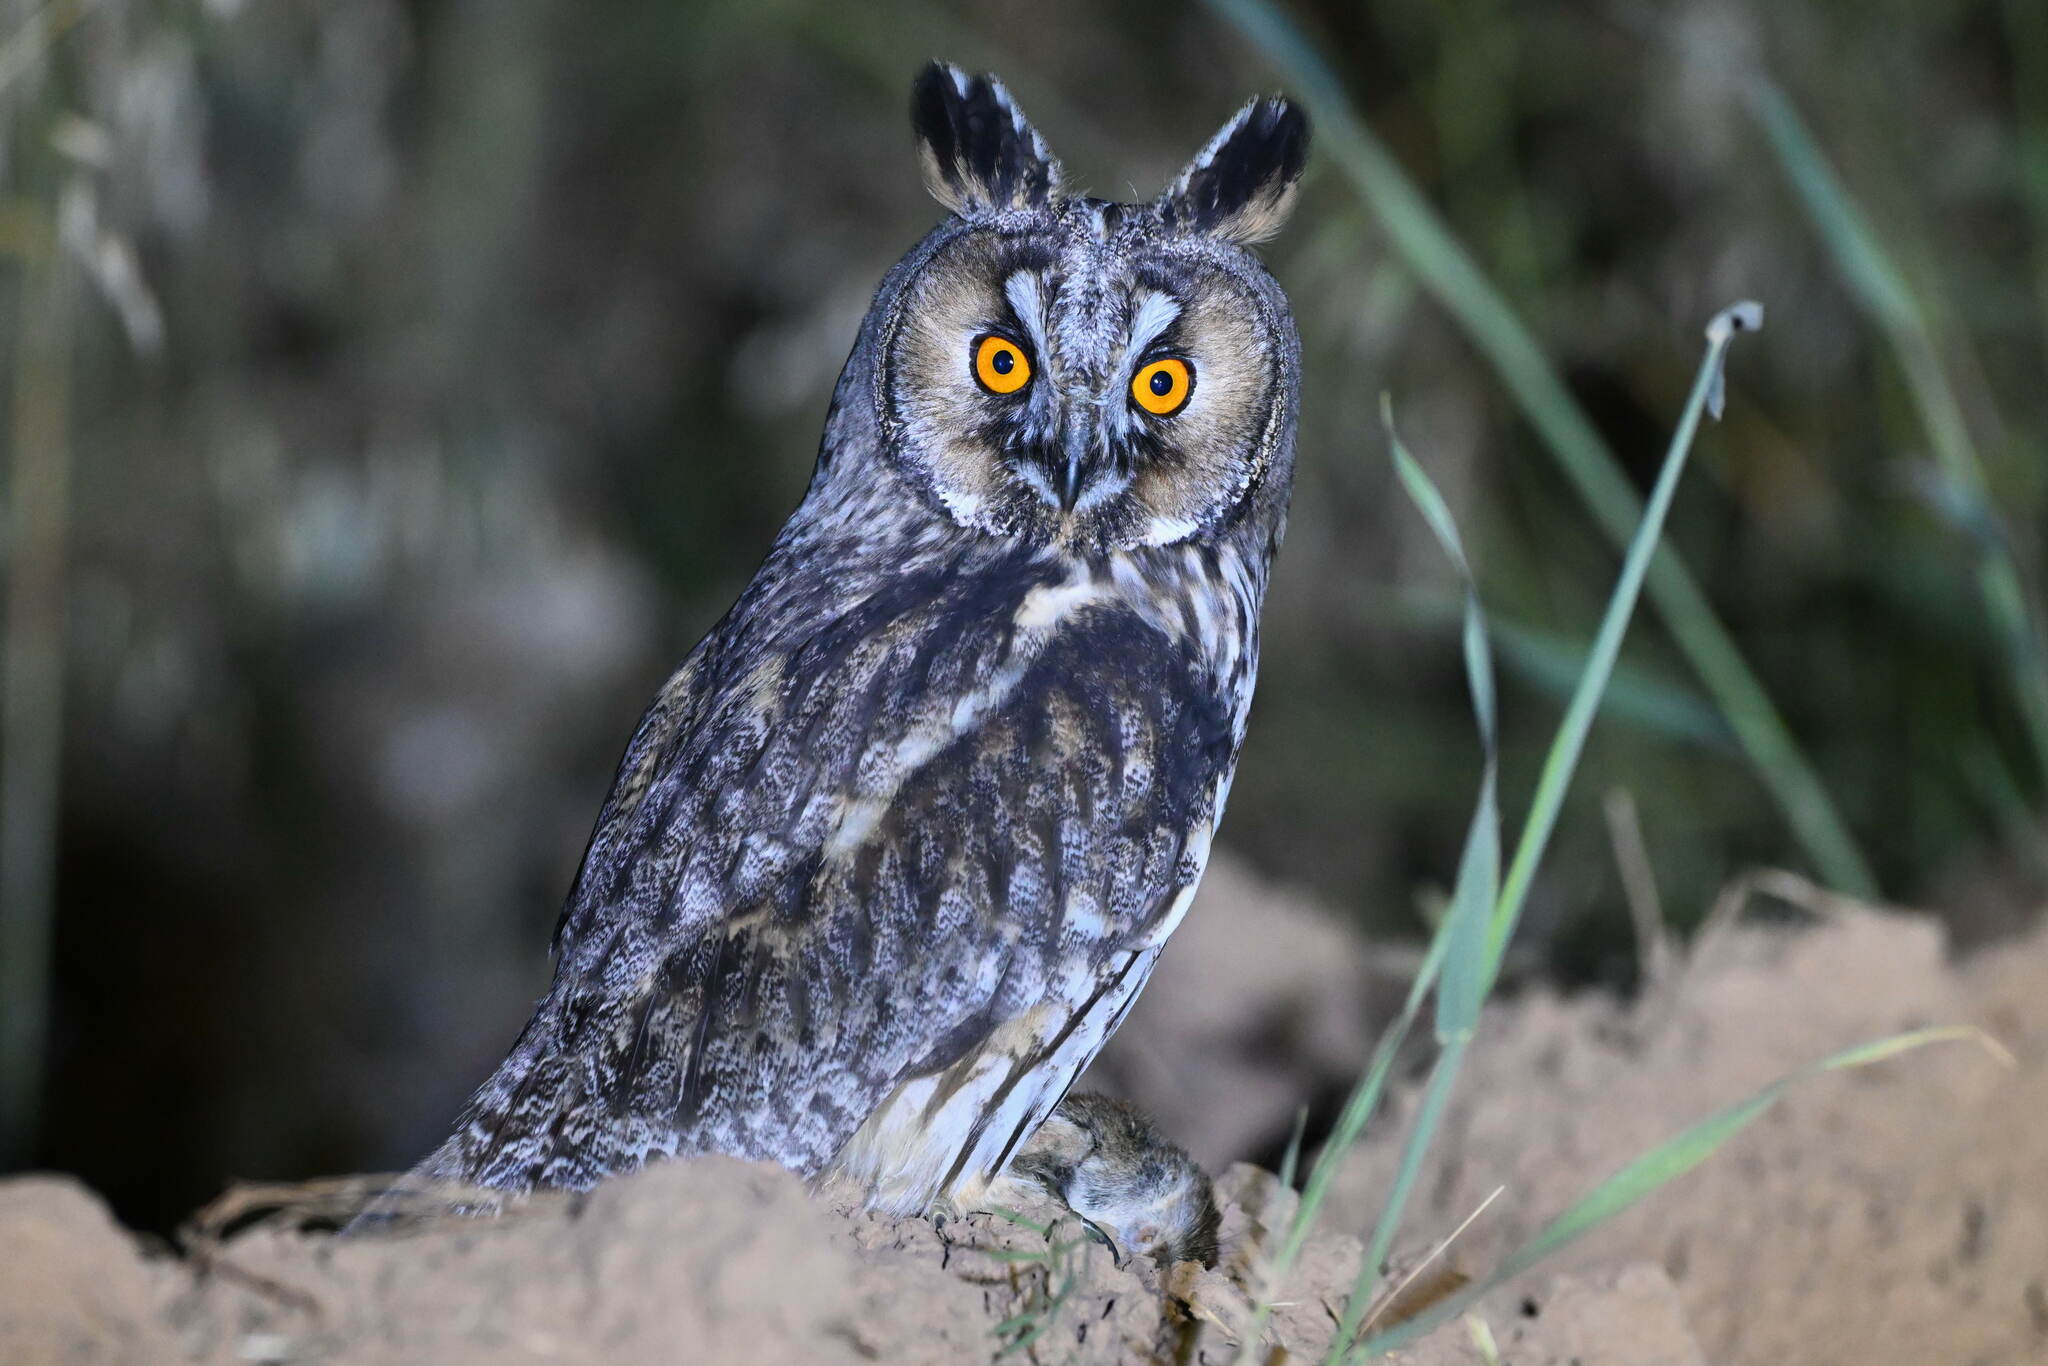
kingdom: Animalia
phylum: Chordata
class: Aves
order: Strigiformes
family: Strigidae
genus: Asio
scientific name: Asio otus
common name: Long-eared owl
